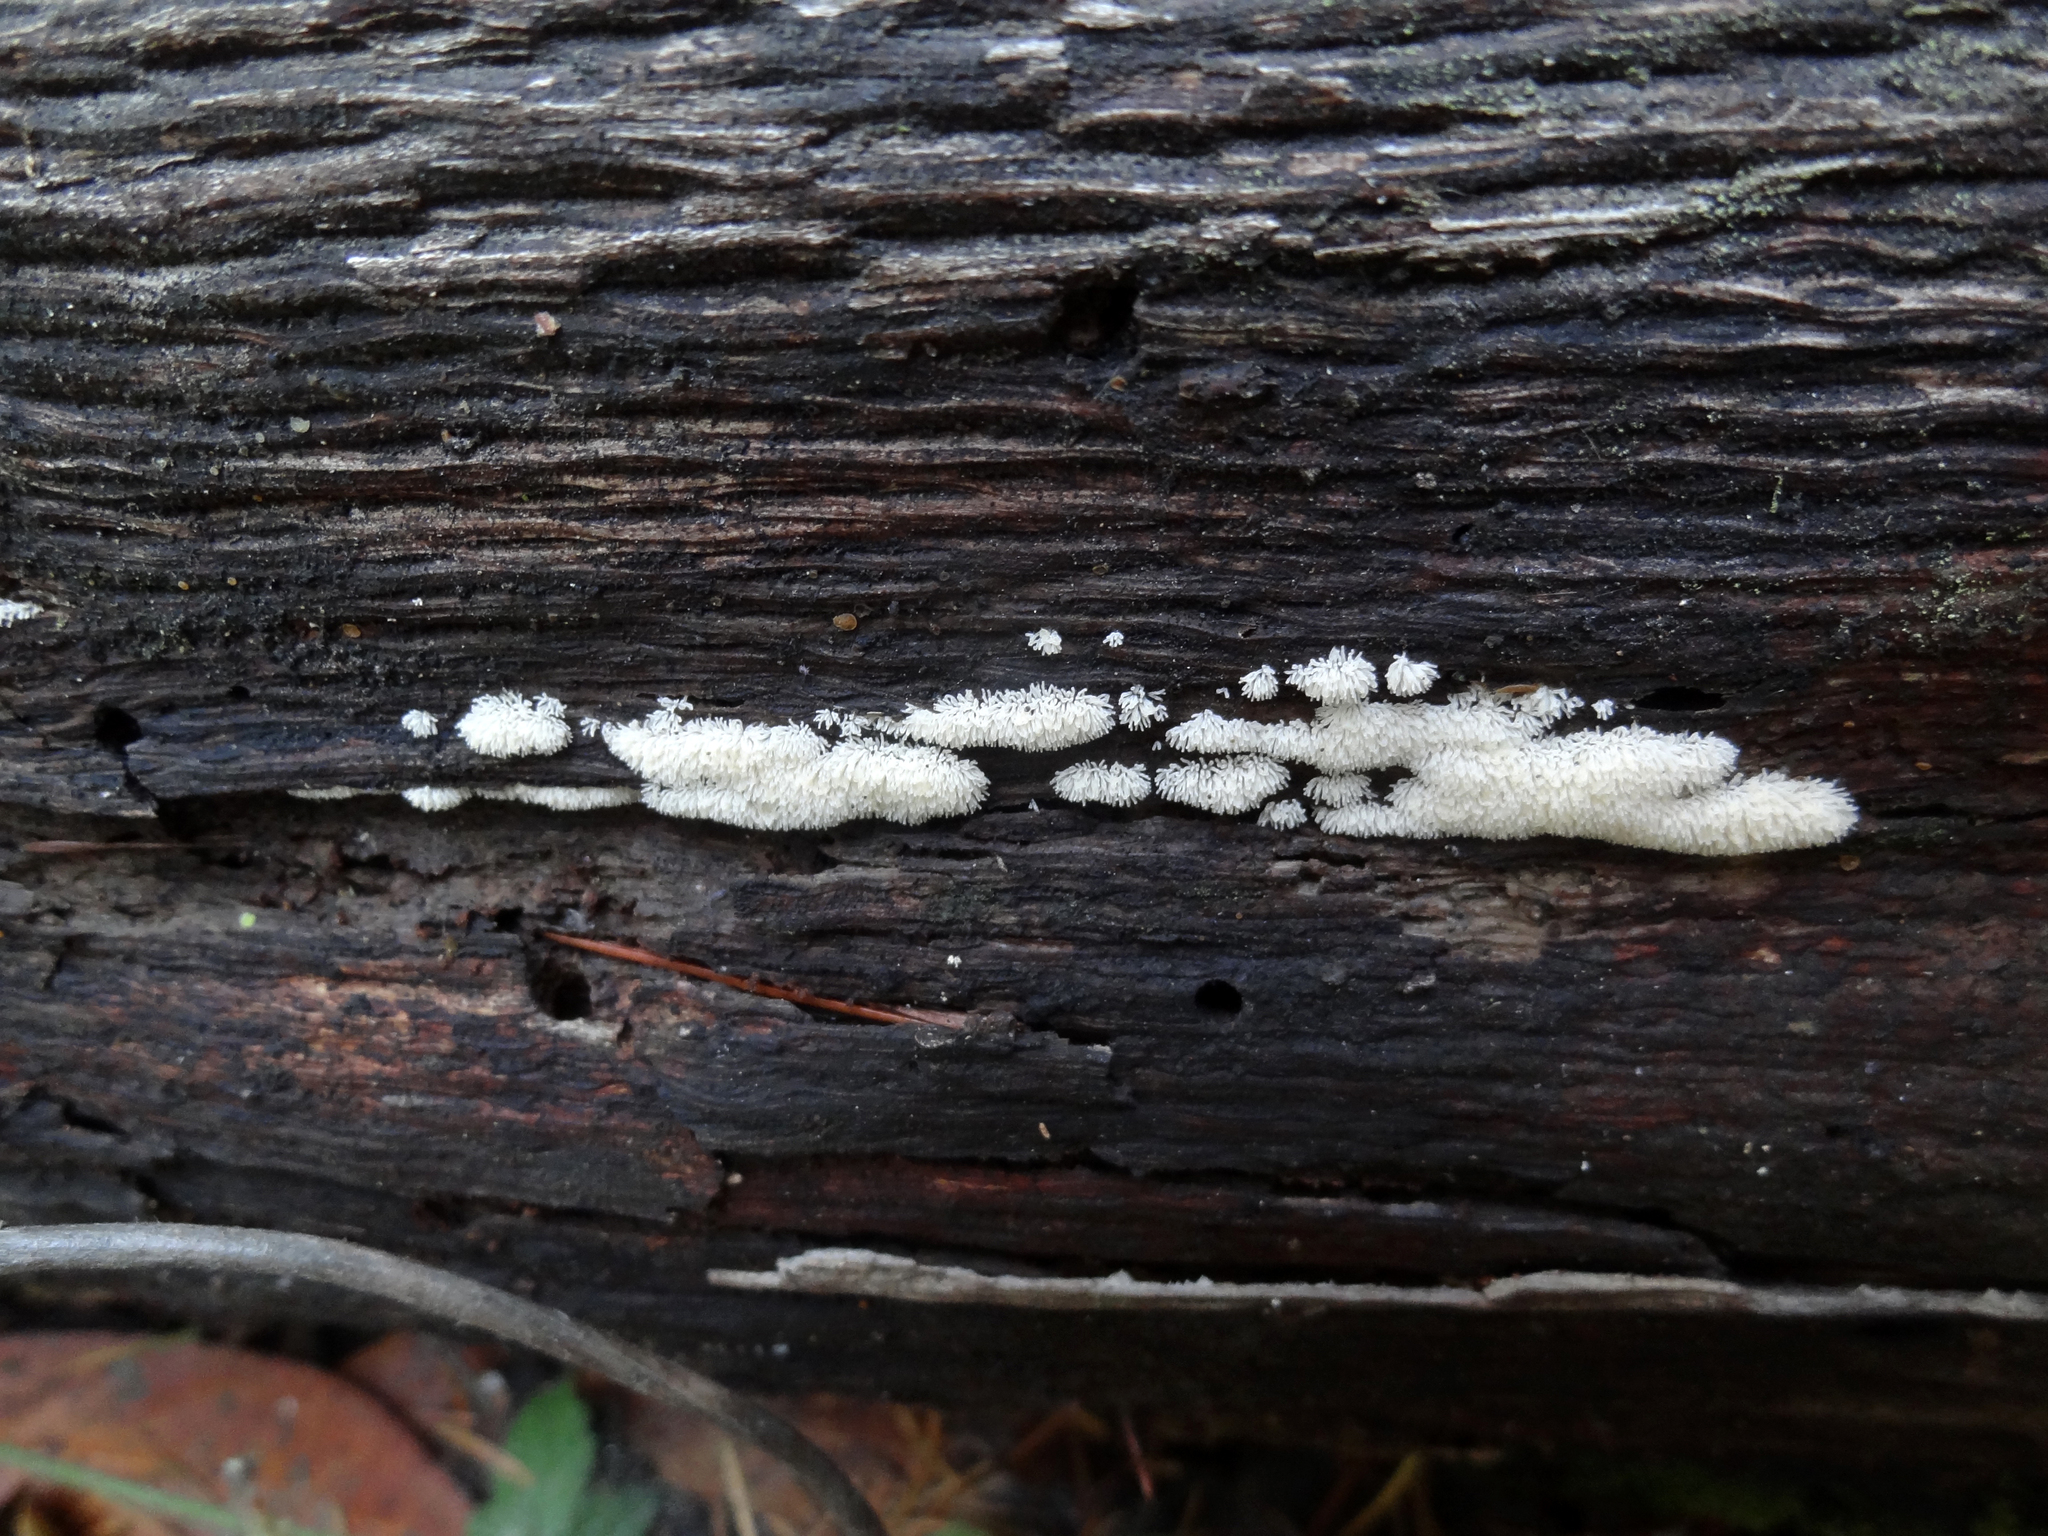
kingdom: Protozoa
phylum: Mycetozoa
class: Protosteliomycetes
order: Ceratiomyxales
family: Ceratiomyxaceae
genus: Ceratiomyxa
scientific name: Ceratiomyxa fruticulosa
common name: Honeycomb coral slime mold
